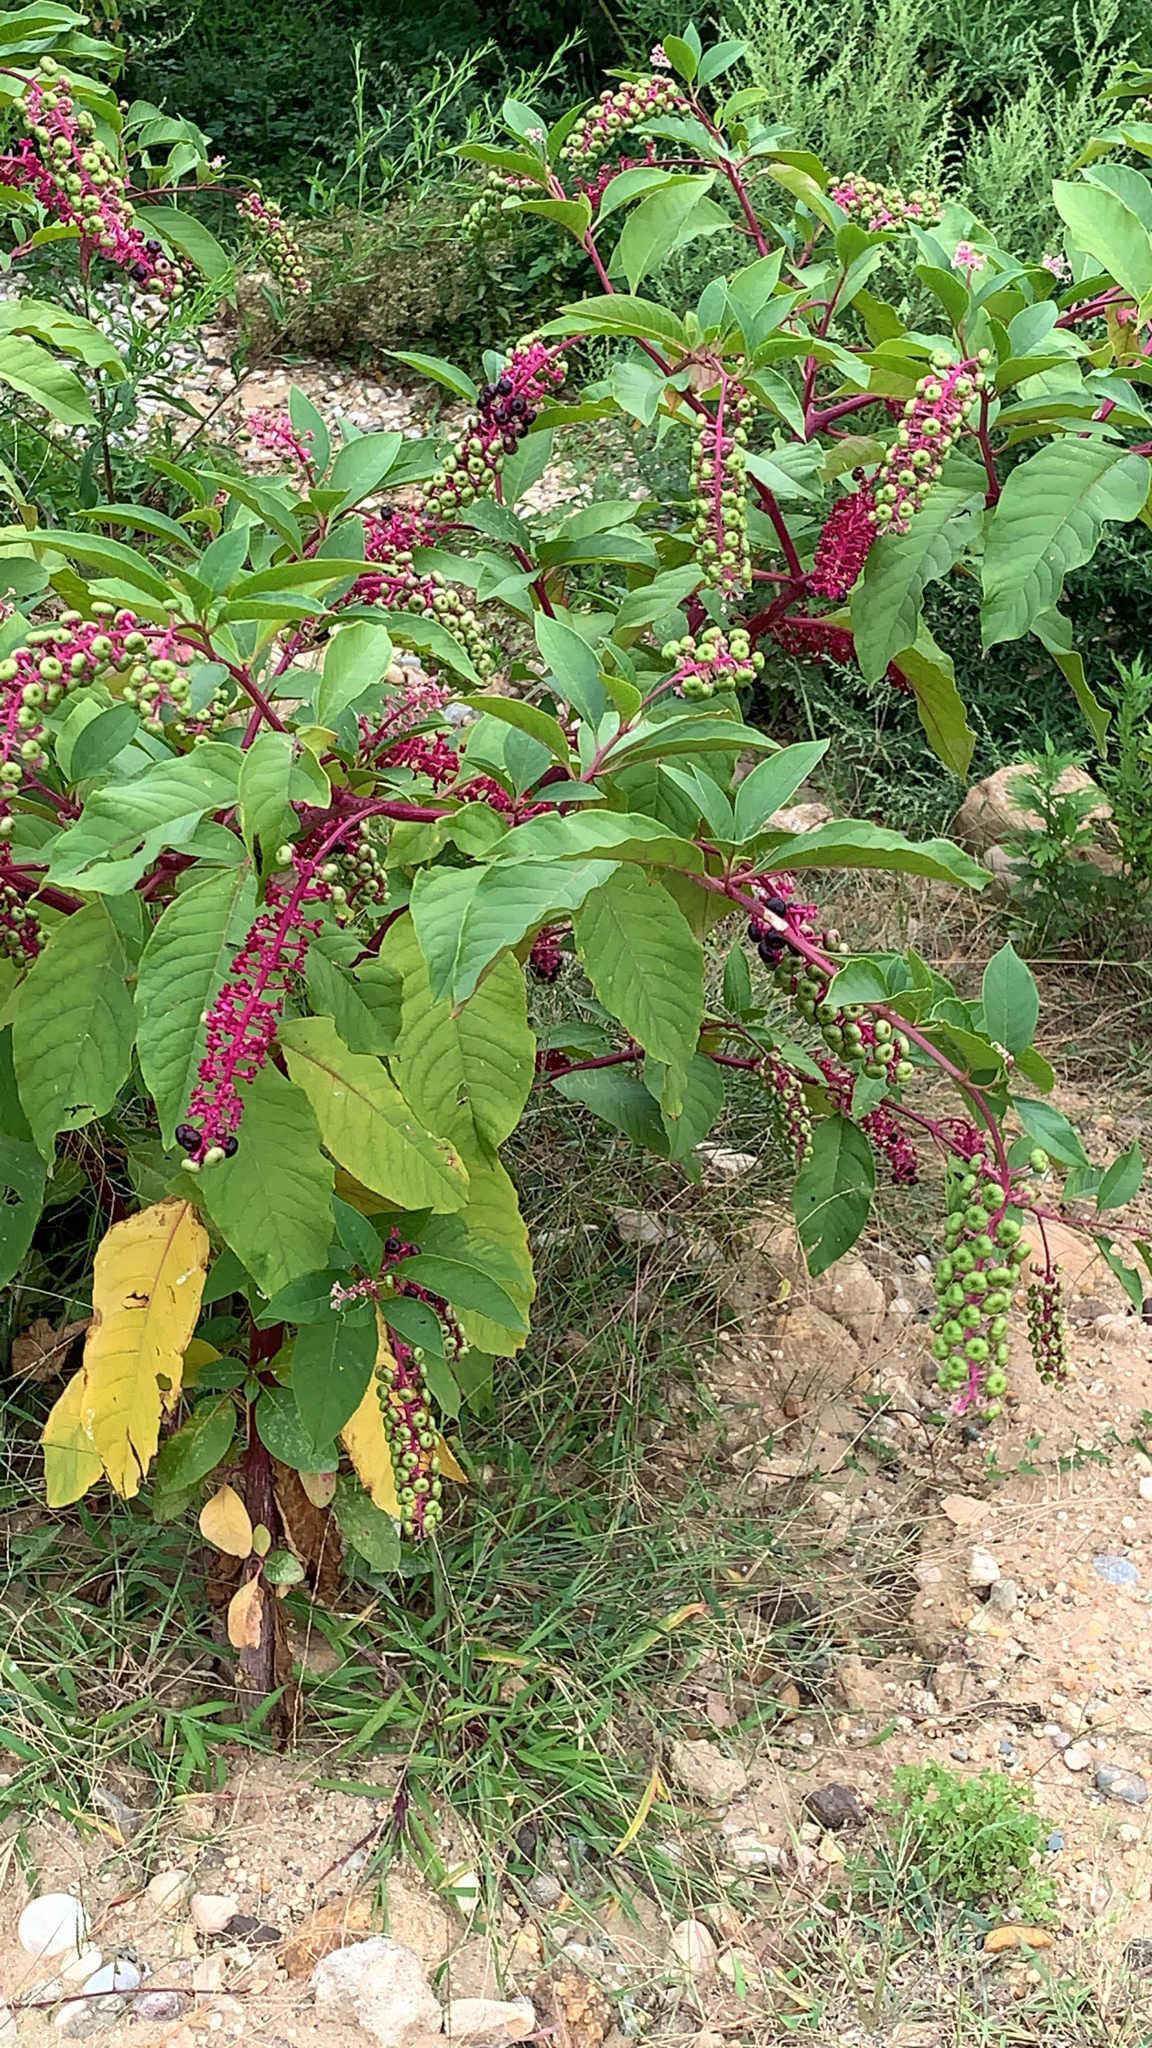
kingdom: Plantae
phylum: Tracheophyta
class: Magnoliopsida
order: Caryophyllales
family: Phytolaccaceae
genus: Phytolacca
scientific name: Phytolacca americana
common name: American pokeweed
